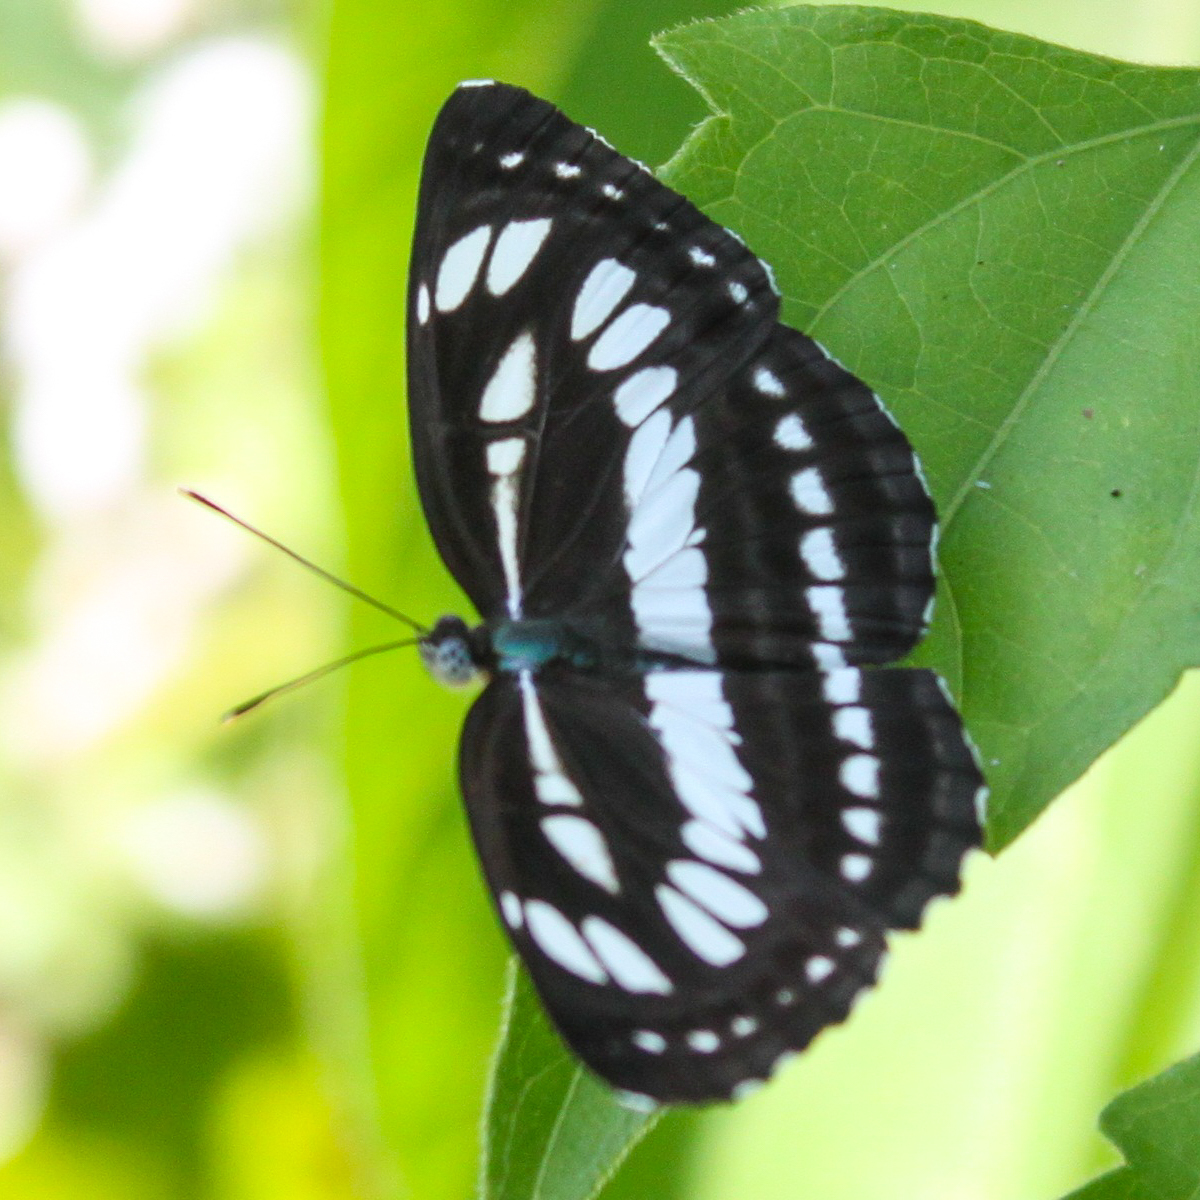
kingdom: Animalia
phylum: Arthropoda
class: Insecta
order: Lepidoptera
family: Nymphalidae
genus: Neptis
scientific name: Neptis hylas
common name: Common sailer
